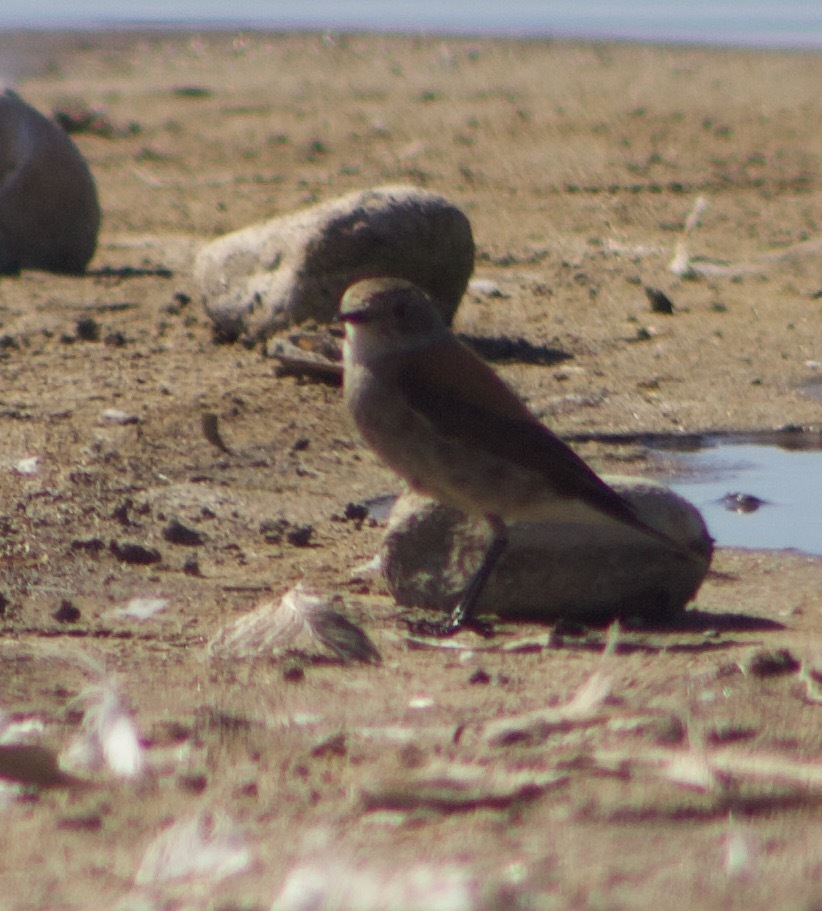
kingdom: Animalia
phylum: Chordata
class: Aves
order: Passeriformes
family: Tyrannidae
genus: Lessonia
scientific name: Lessonia rufa
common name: Austral negrito
